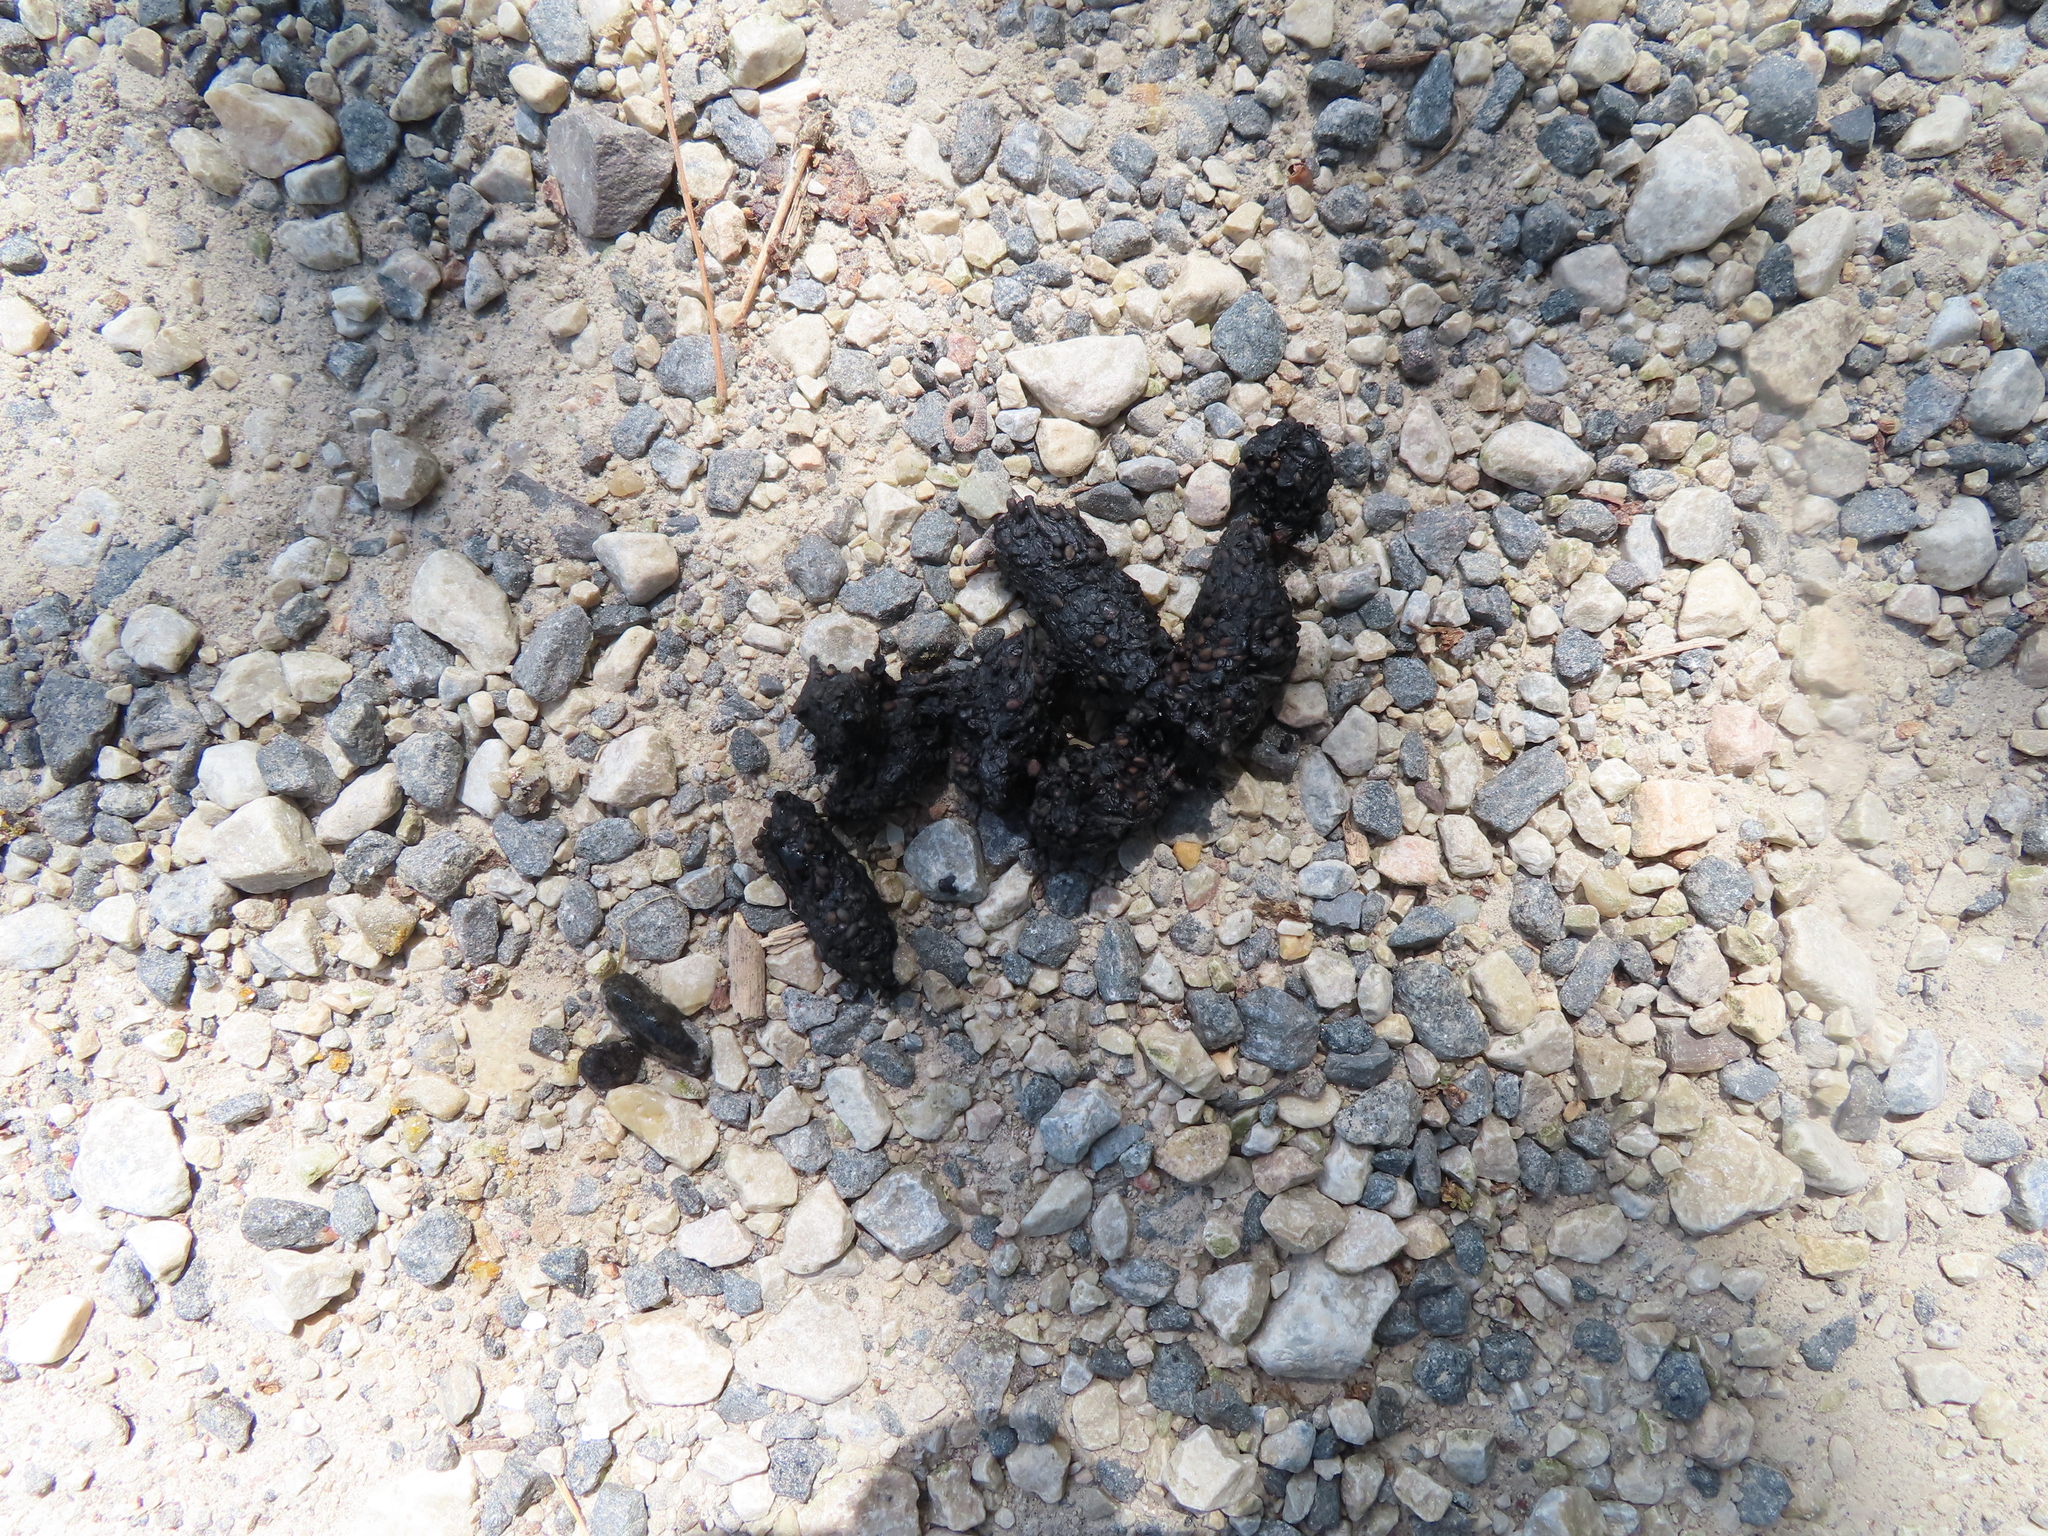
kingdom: Animalia
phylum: Chordata
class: Mammalia
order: Carnivora
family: Procyonidae
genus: Procyon
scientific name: Procyon lotor
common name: Raccoon
